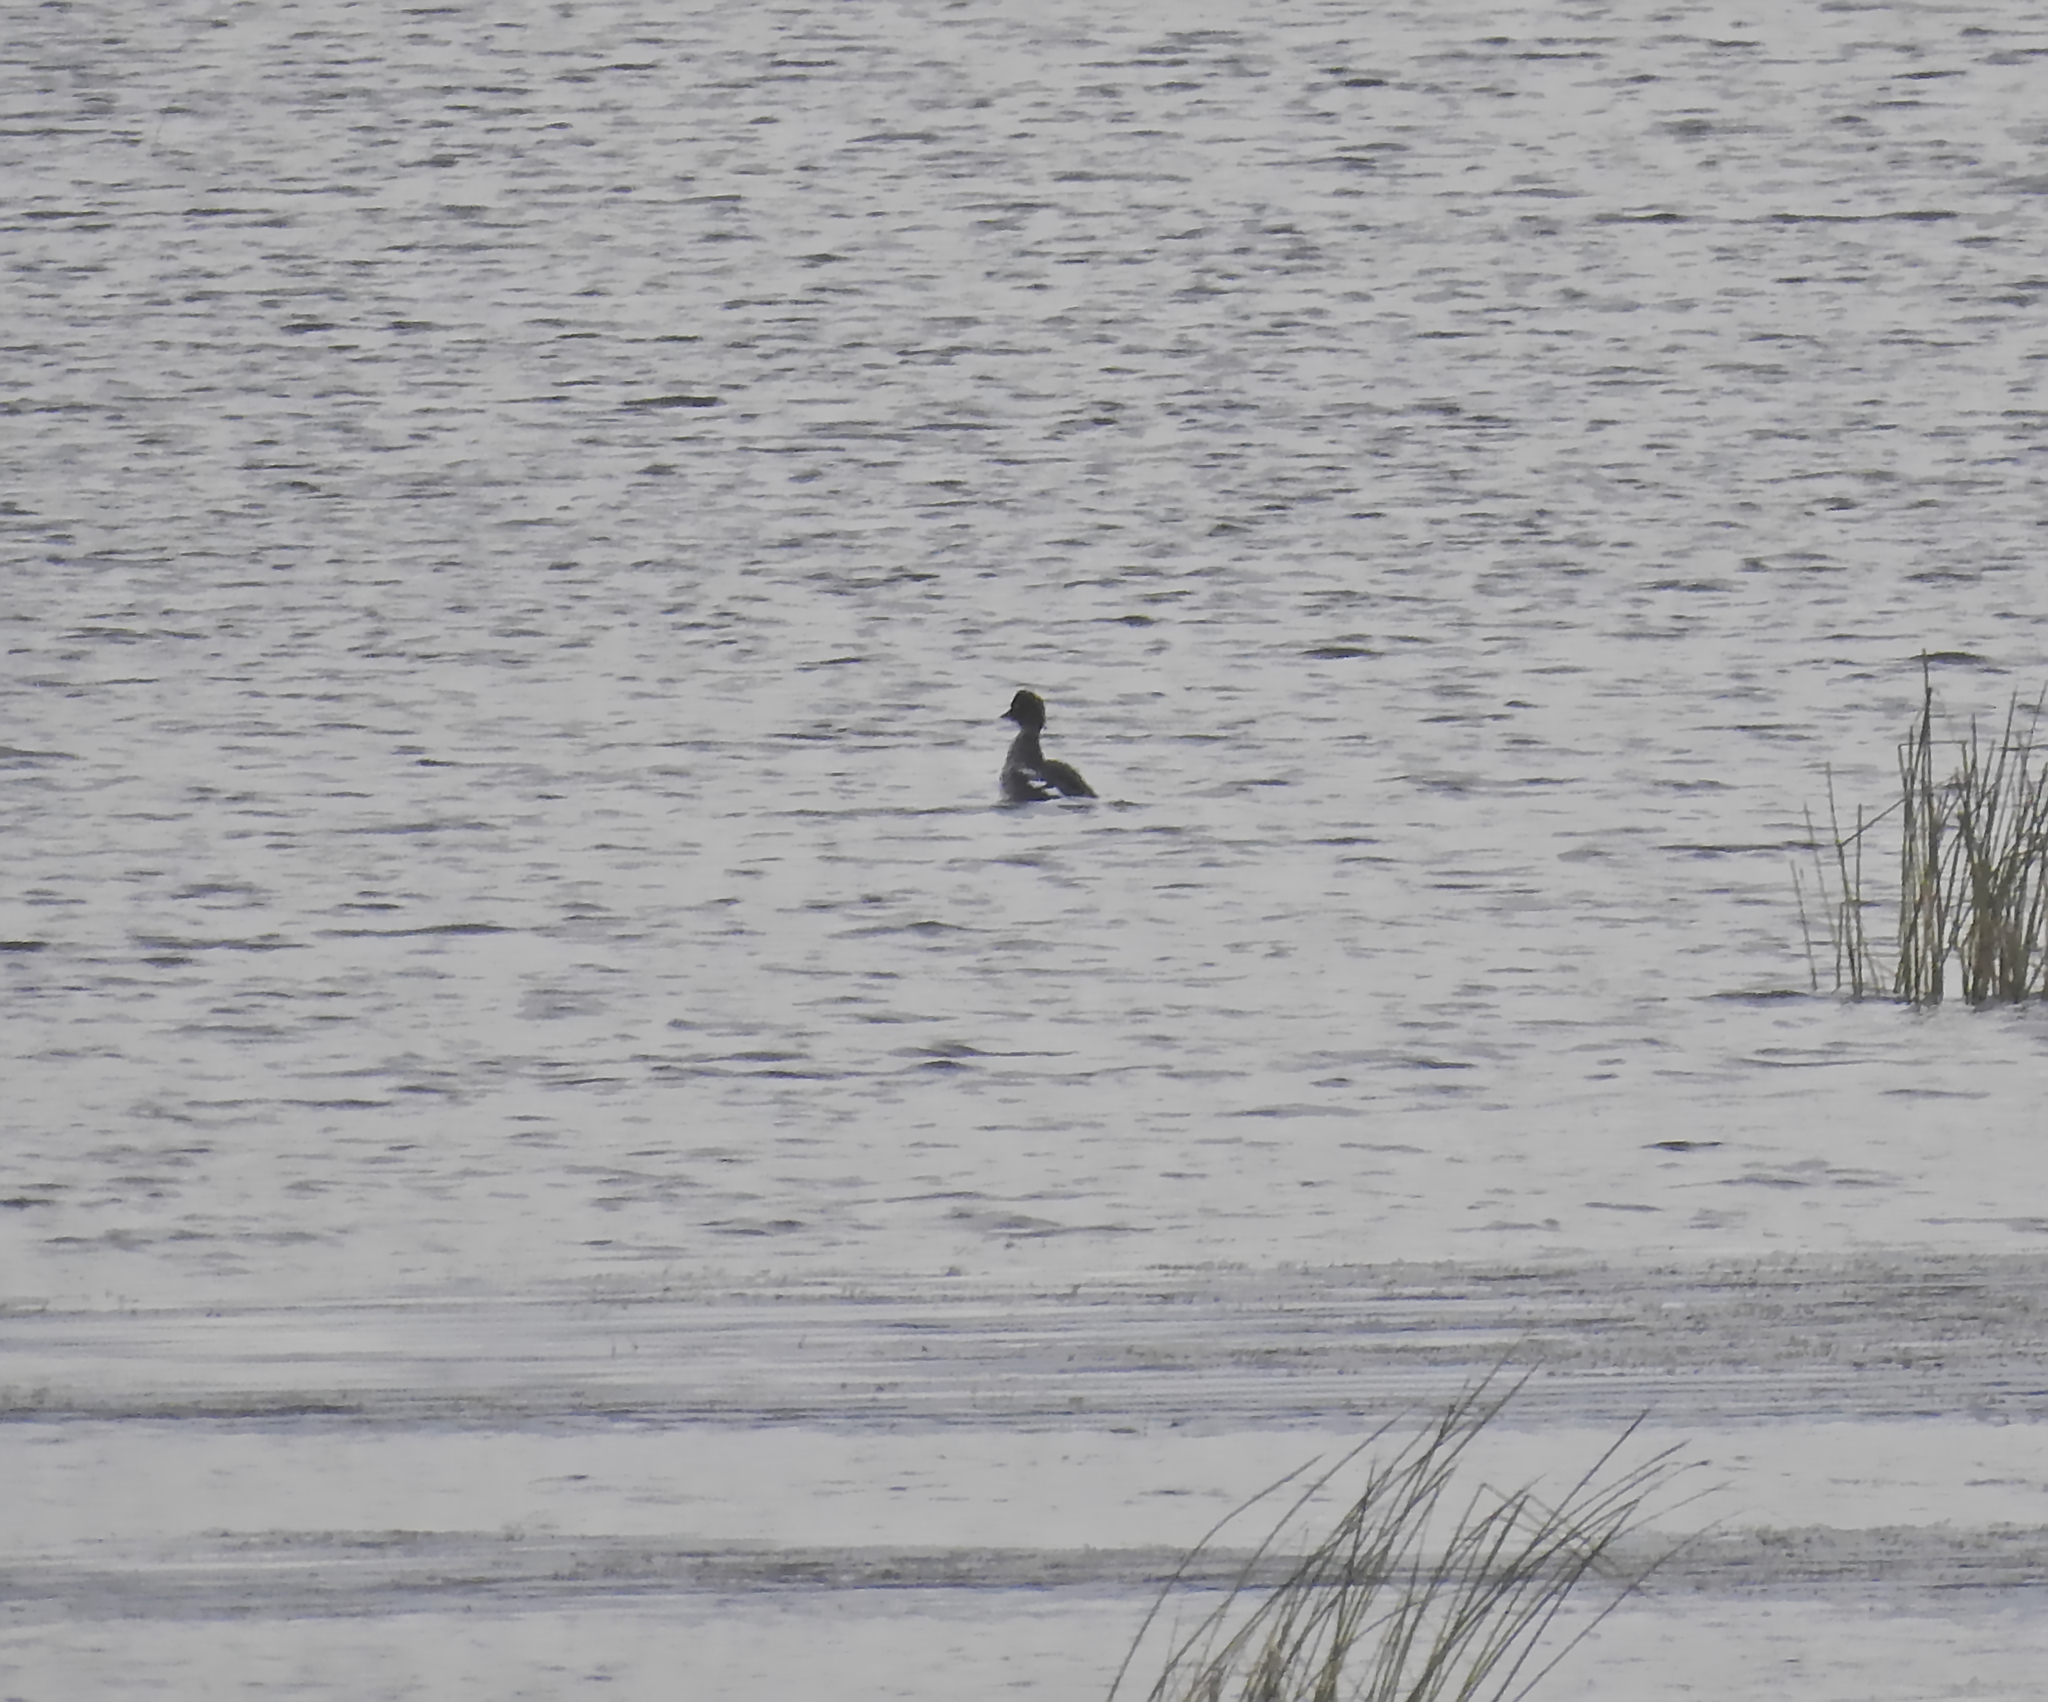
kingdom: Animalia
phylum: Chordata
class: Aves
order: Anseriformes
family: Anatidae
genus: Bucephala
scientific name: Bucephala clangula
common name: Common goldeneye
